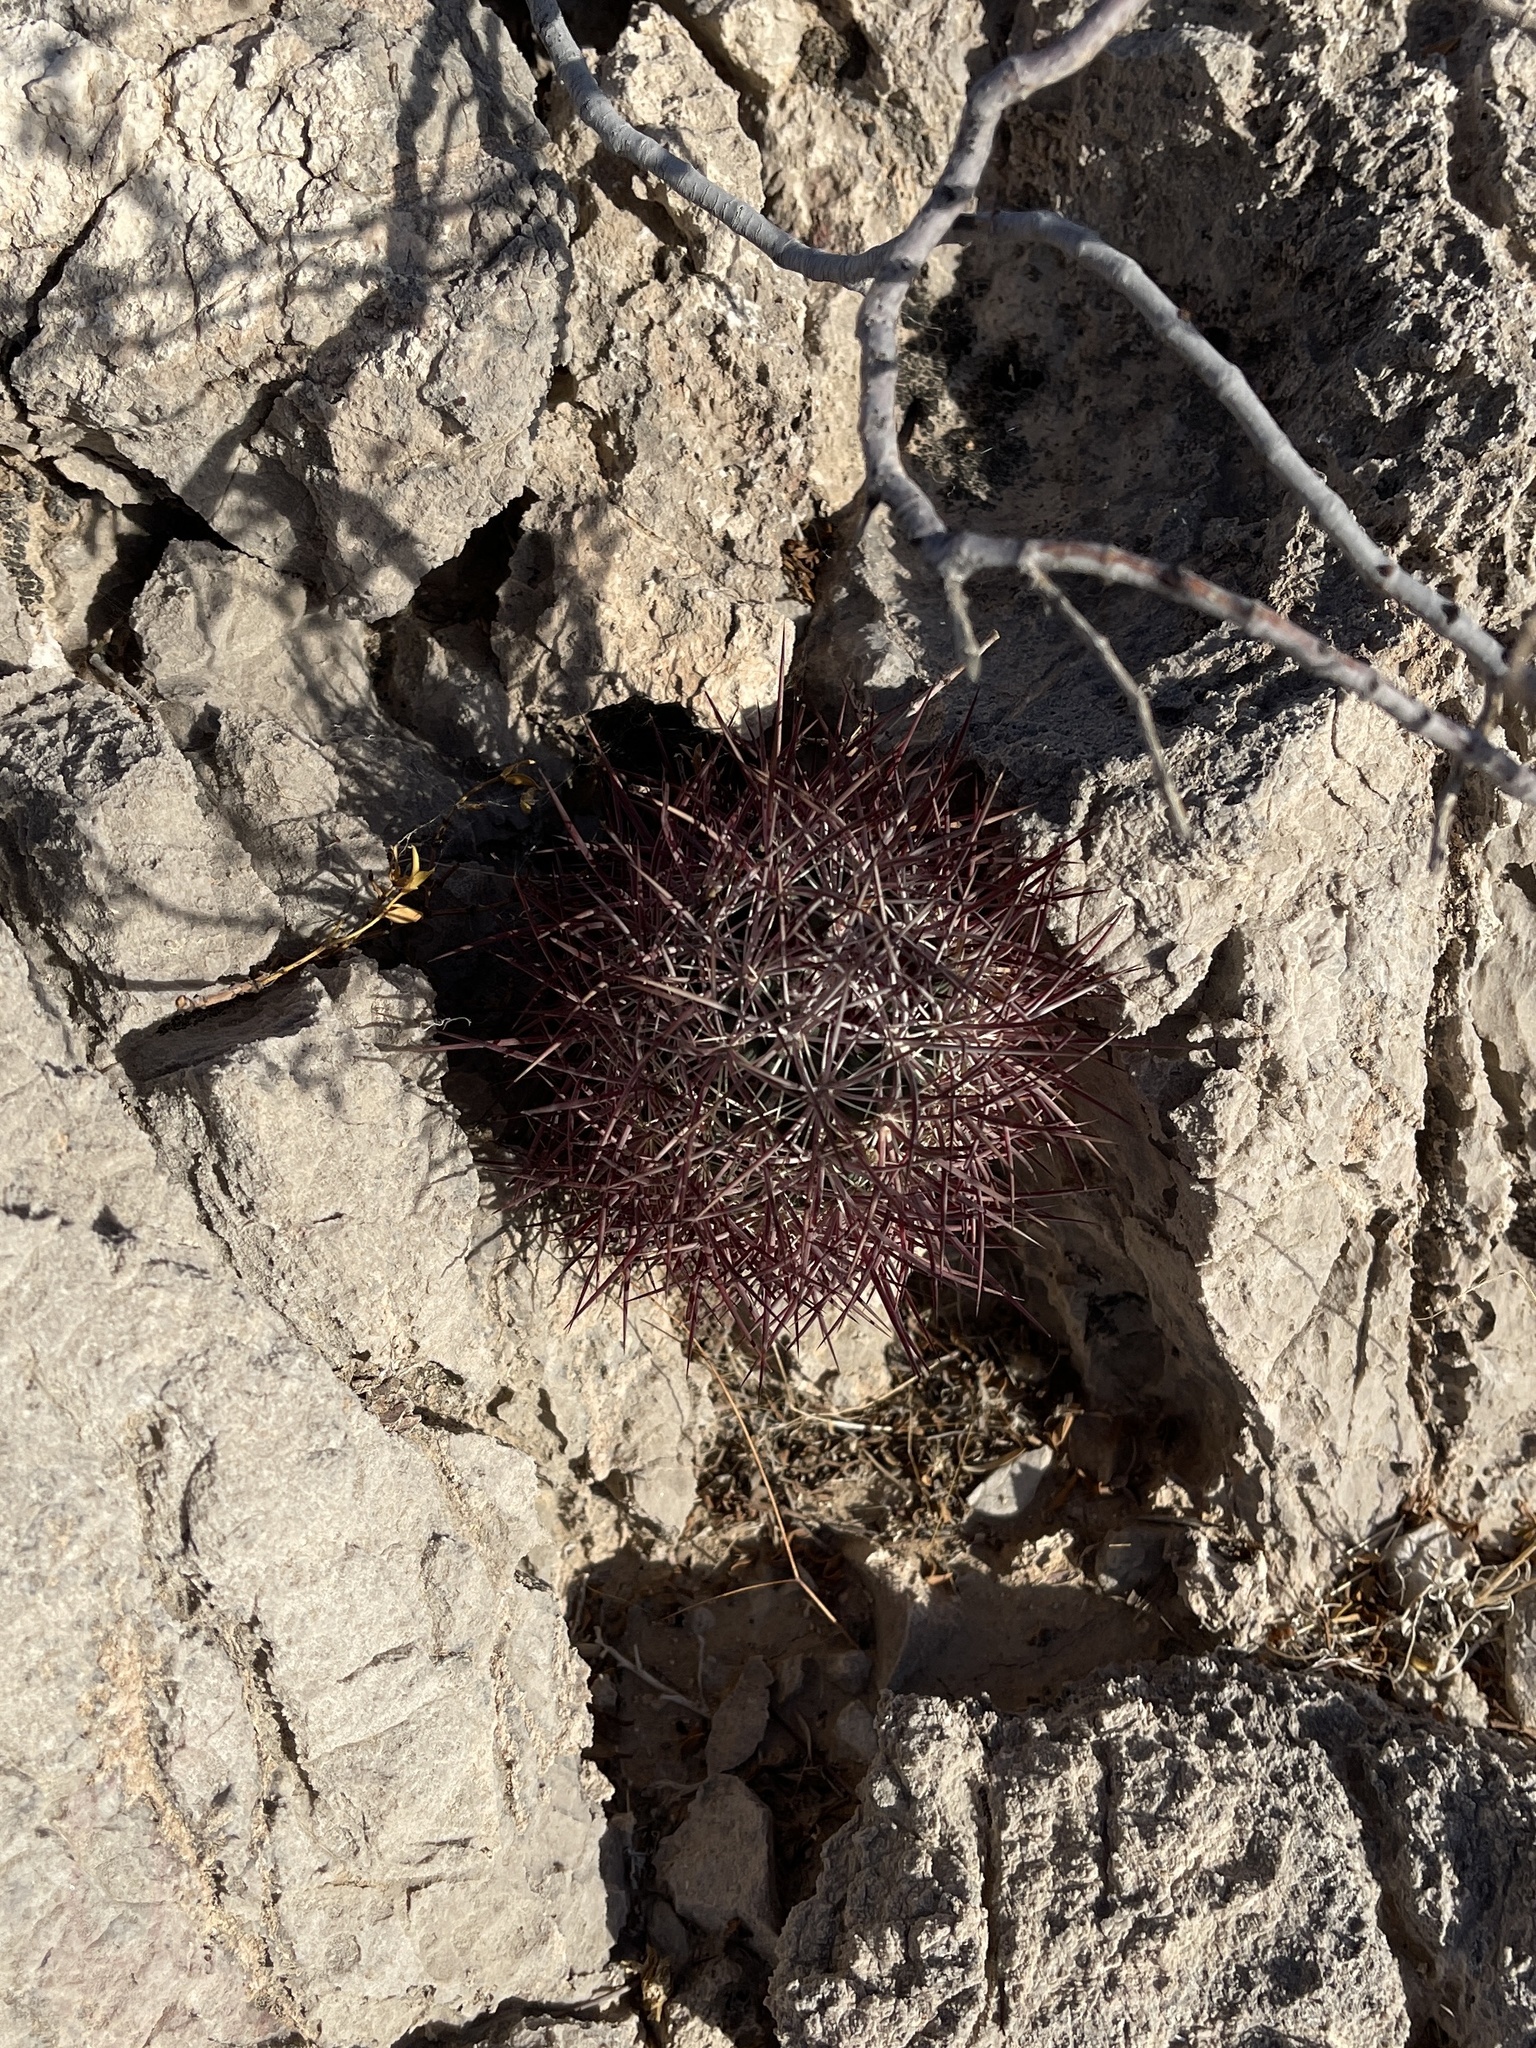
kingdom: Plantae
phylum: Tracheophyta
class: Magnoliopsida
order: Caryophyllales
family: Cactaceae
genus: Sclerocactus
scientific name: Sclerocactus johnsonii
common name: Eight-spine fishhook cactus
